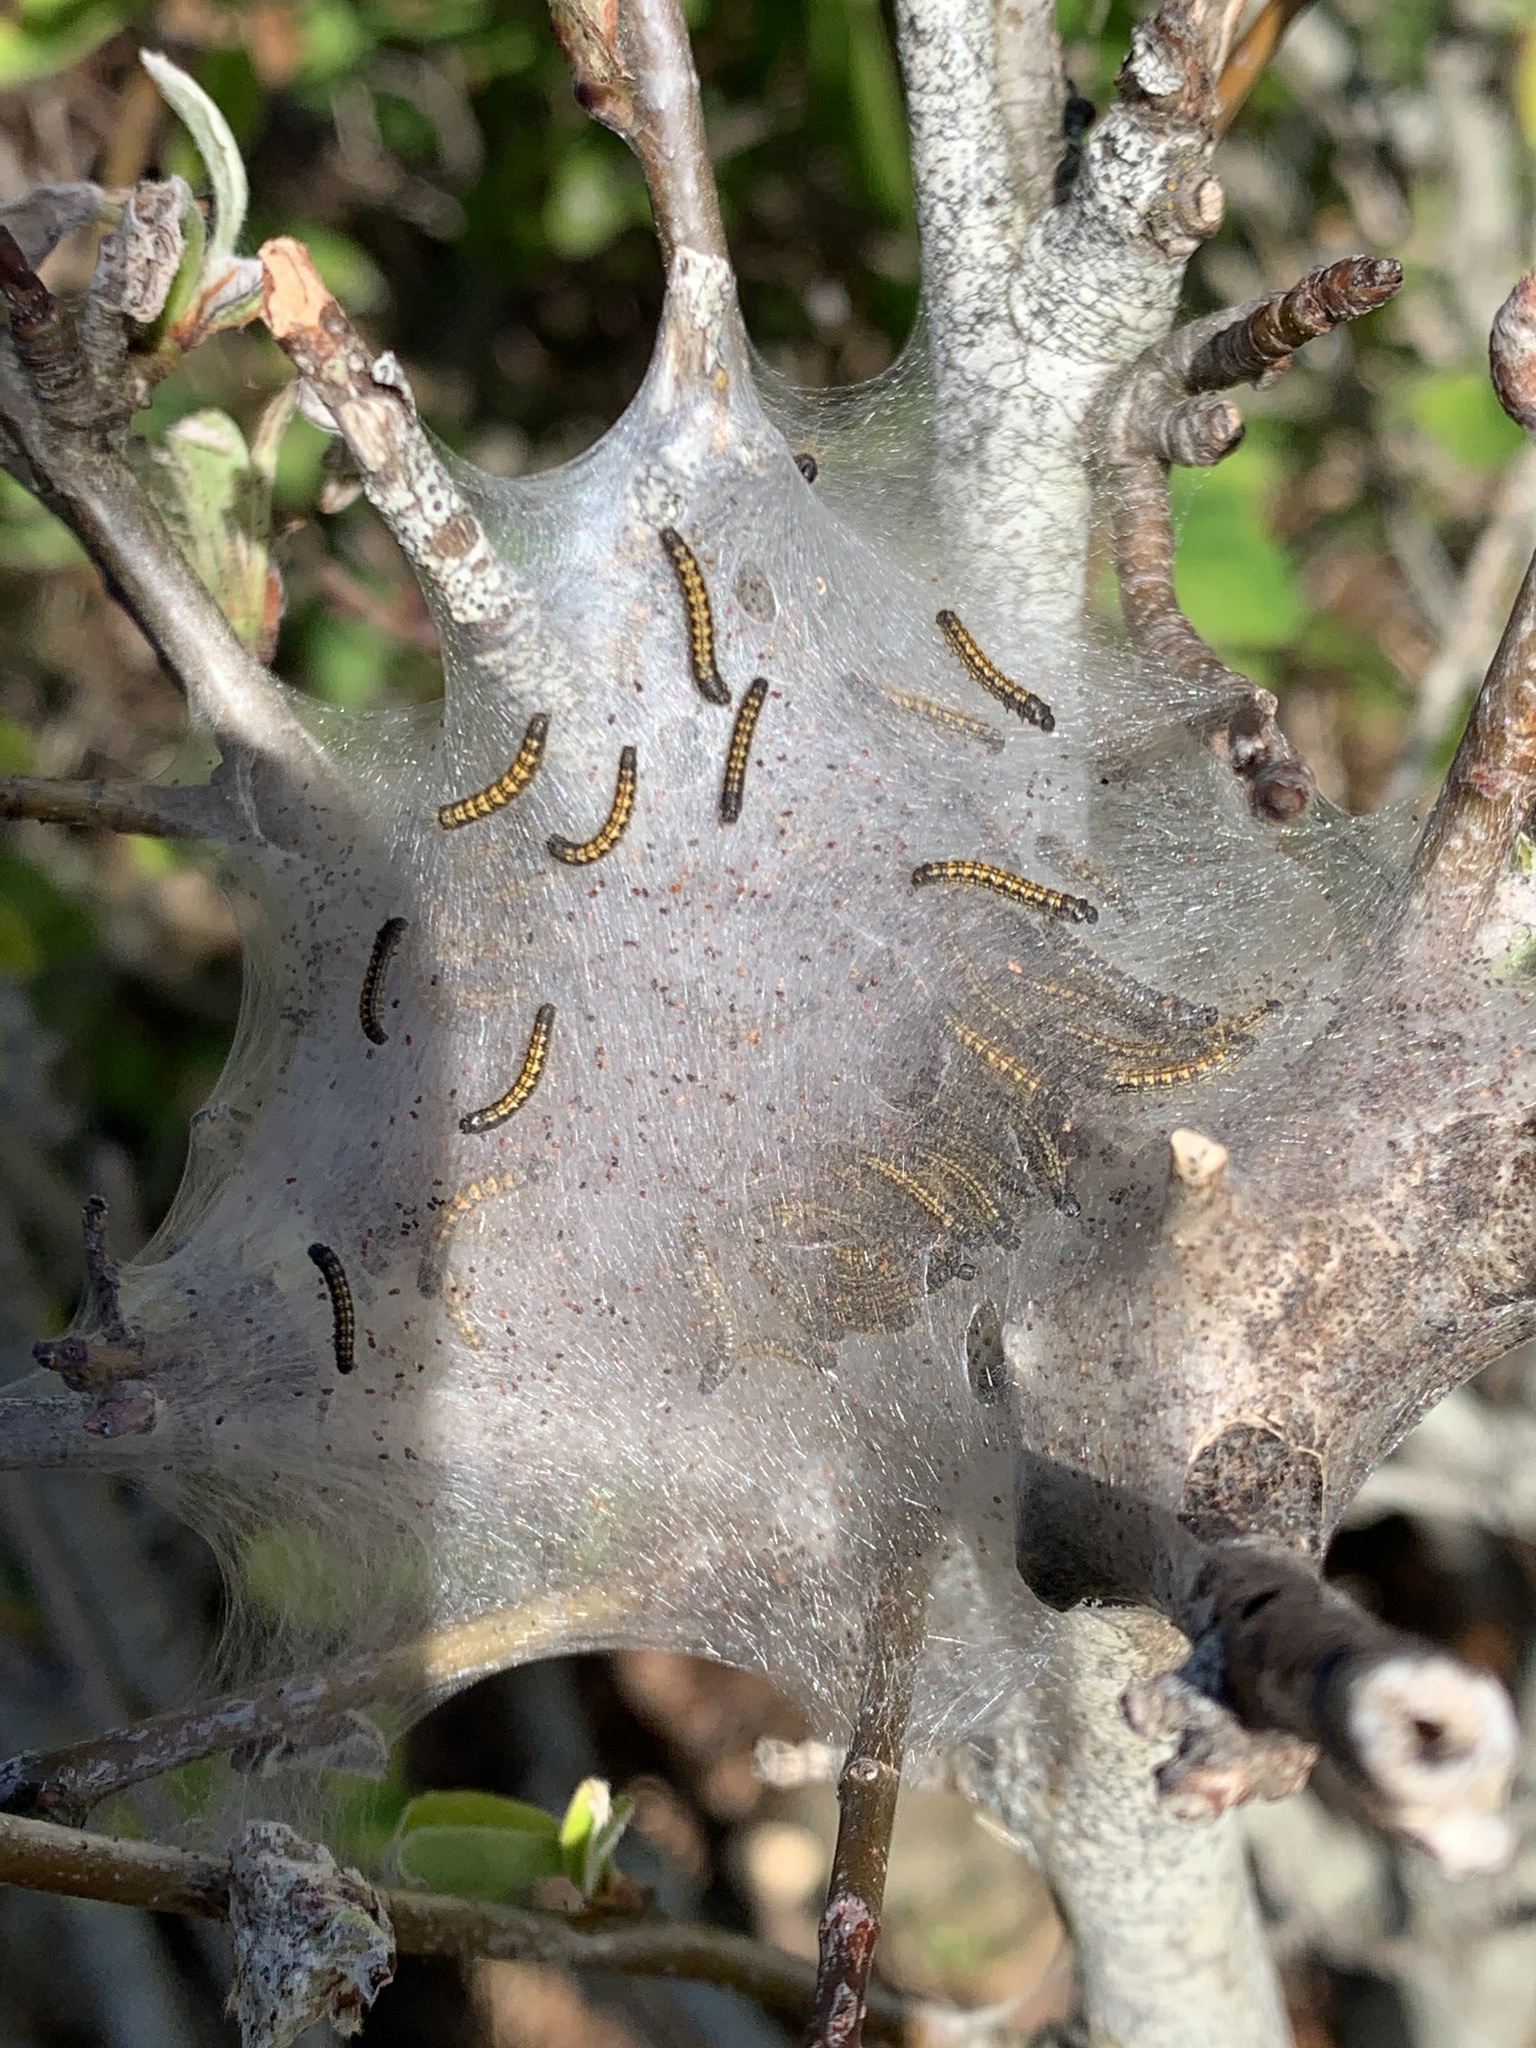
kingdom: Animalia
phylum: Arthropoda
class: Insecta
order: Lepidoptera
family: Lasiocampidae
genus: Malacosoma
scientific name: Malacosoma californica
